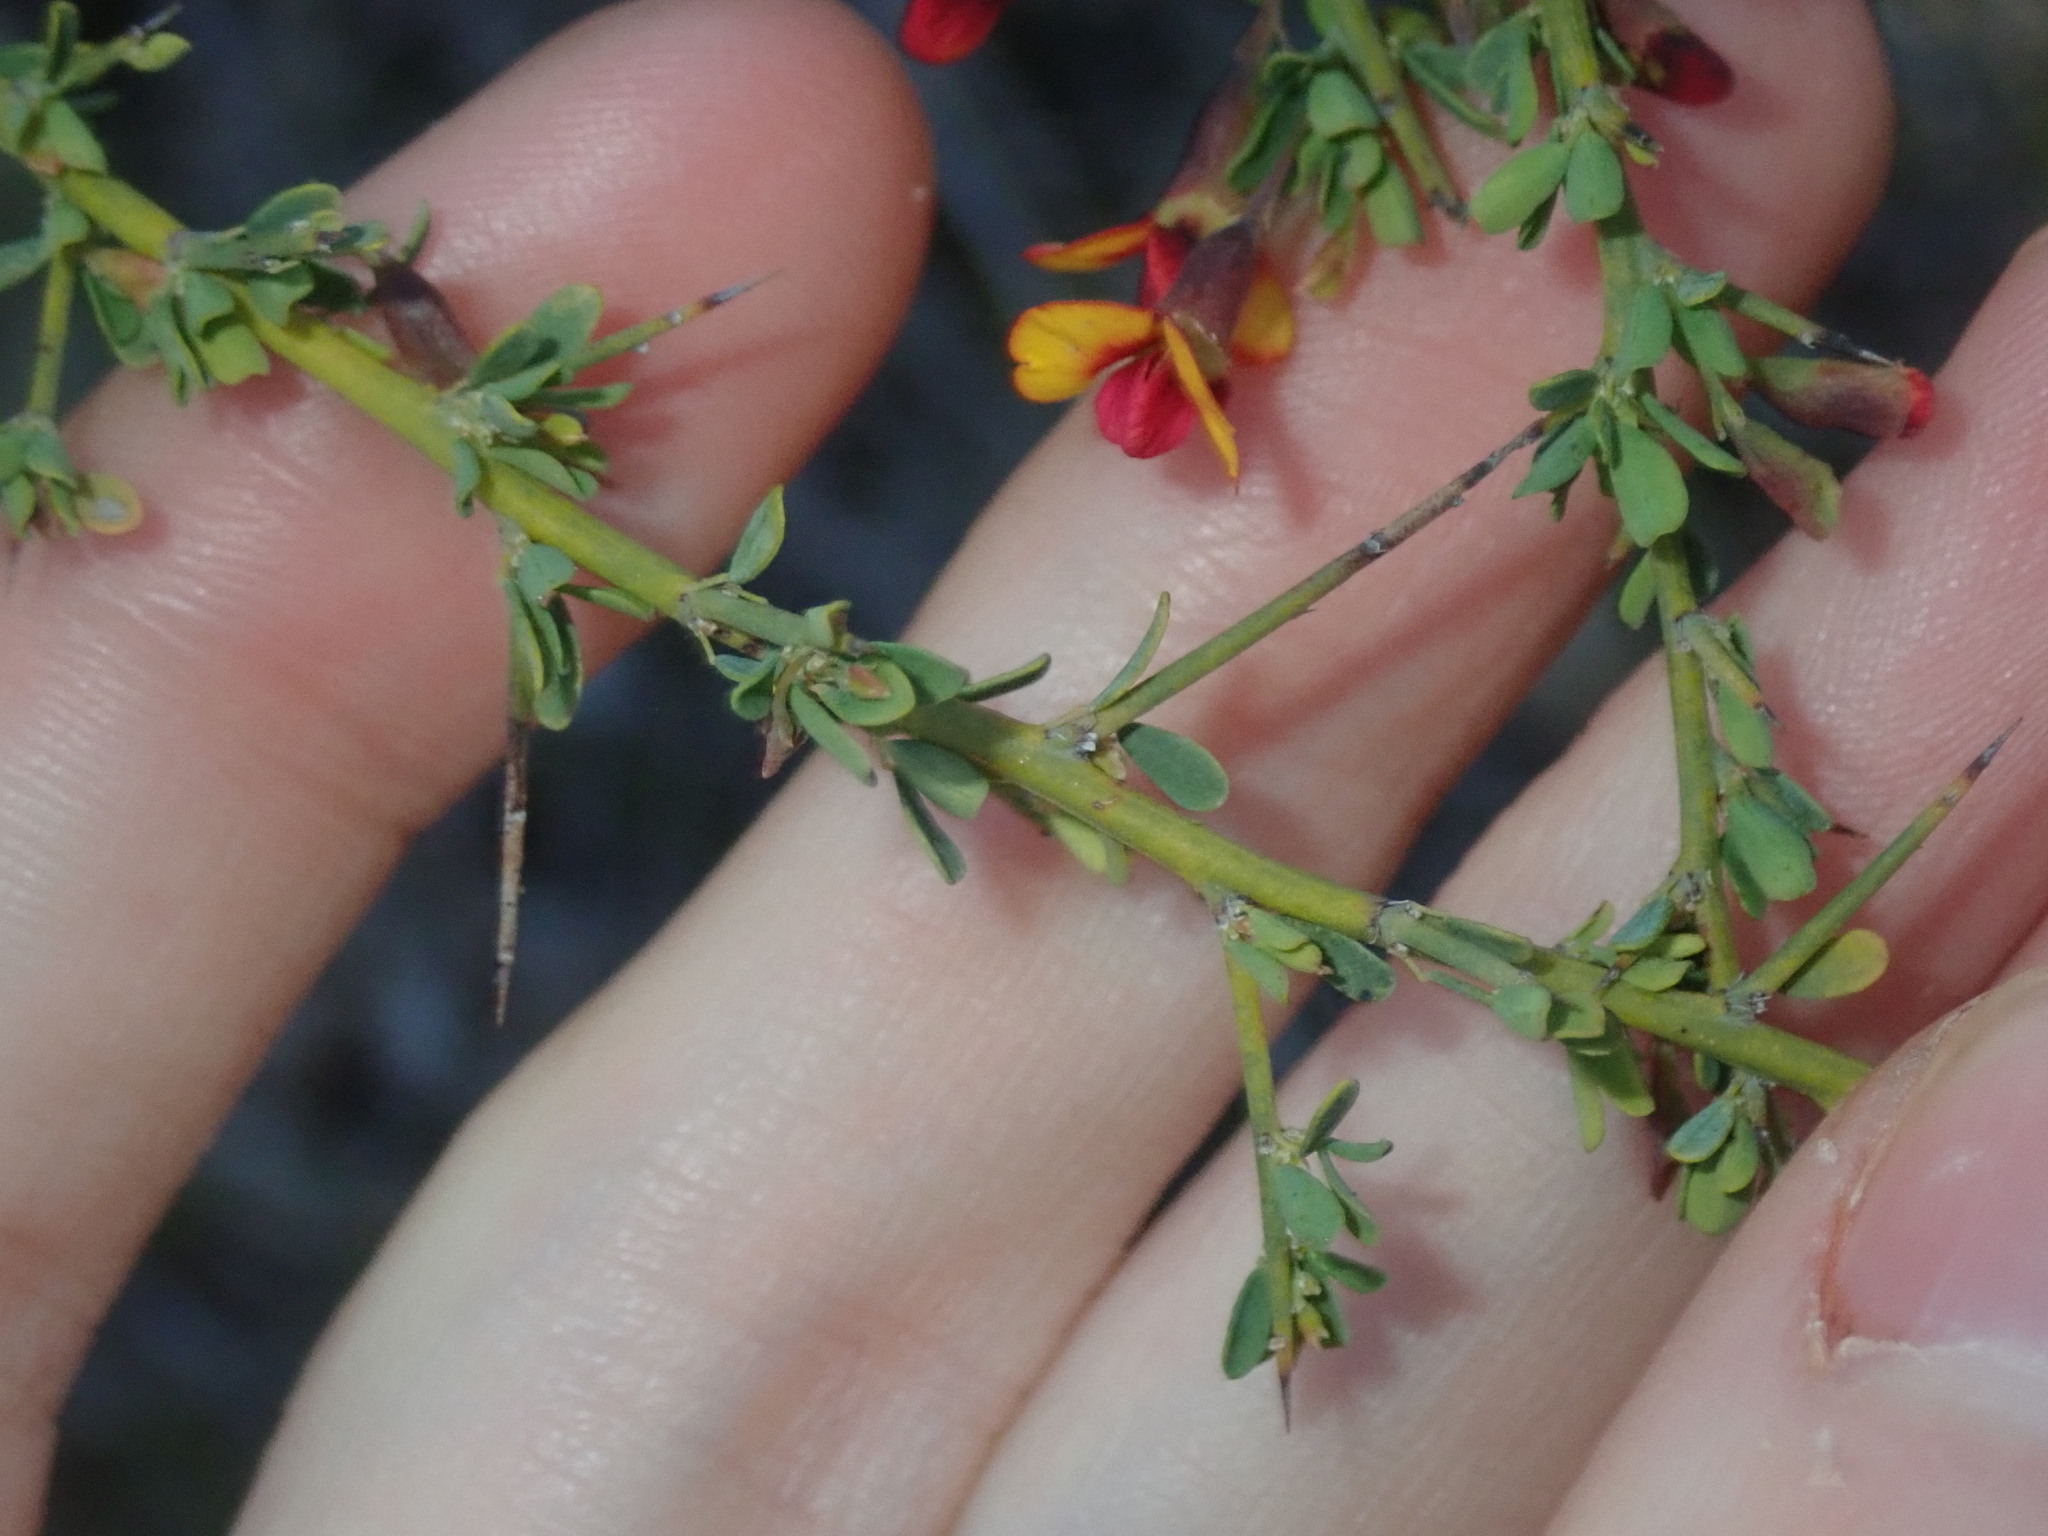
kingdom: Plantae
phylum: Tracheophyta
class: Magnoliopsida
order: Fabales
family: Fabaceae
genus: Bossiaea
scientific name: Bossiaea spinescens
